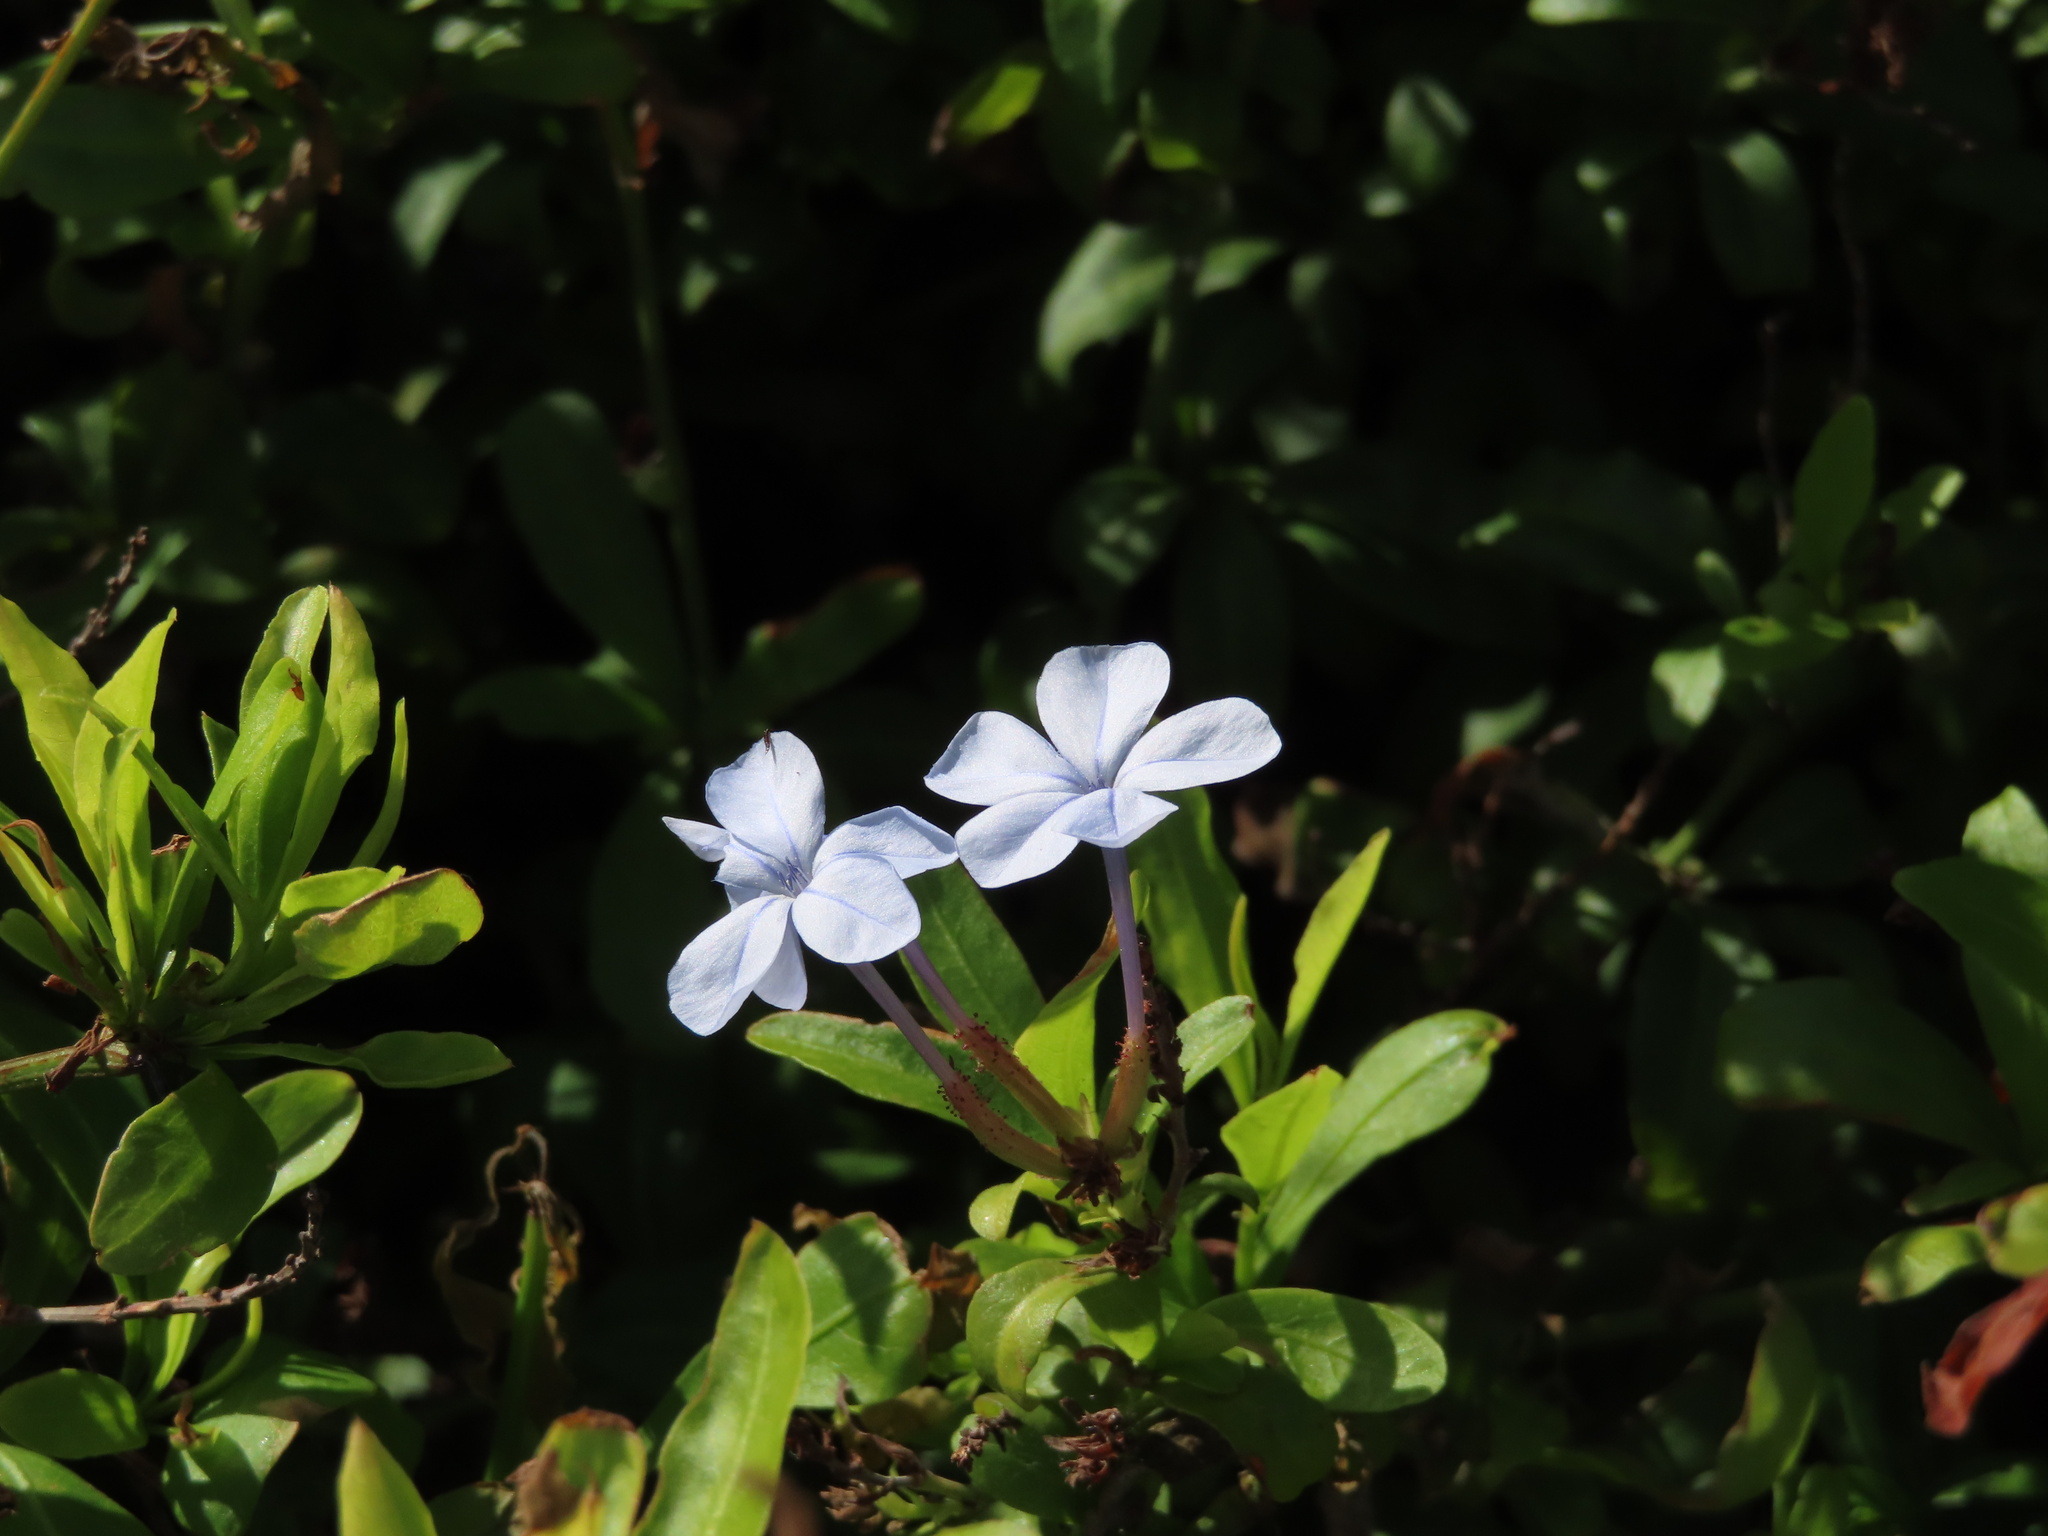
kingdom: Plantae
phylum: Tracheophyta
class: Magnoliopsida
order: Caryophyllales
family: Plumbaginaceae
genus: Plumbago
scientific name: Plumbago auriculata
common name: Cape leadwort
